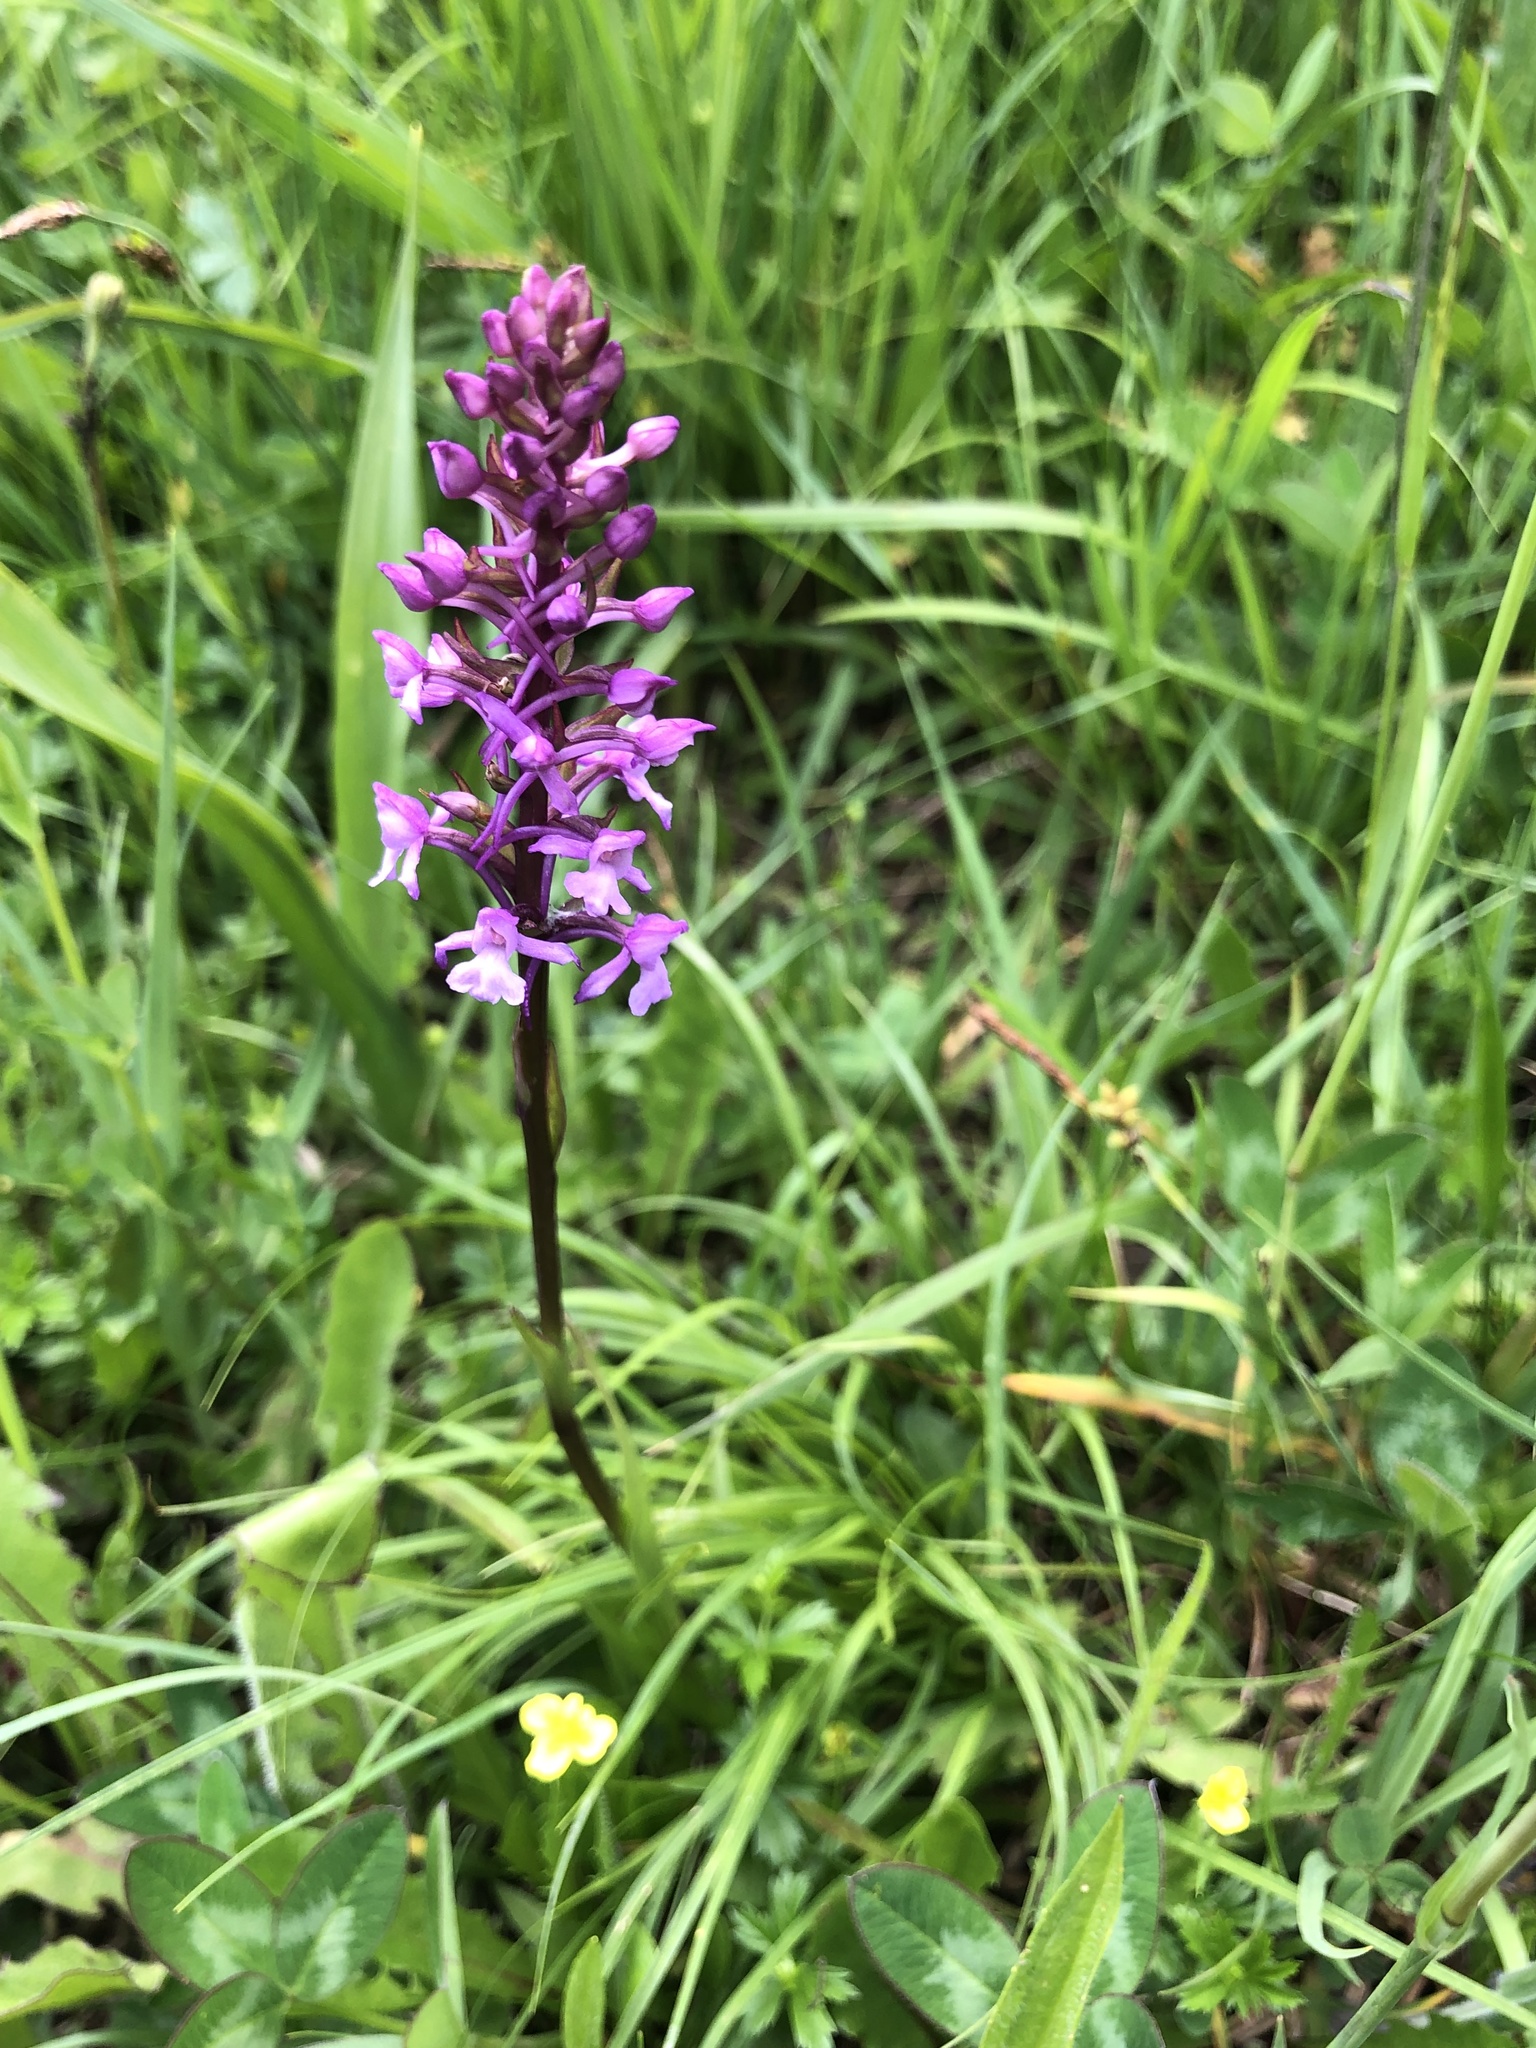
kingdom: Plantae
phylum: Tracheophyta
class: Liliopsida
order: Asparagales
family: Orchidaceae
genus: Gymnadenia
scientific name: Gymnadenia conopsea
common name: Fragrant orchid
